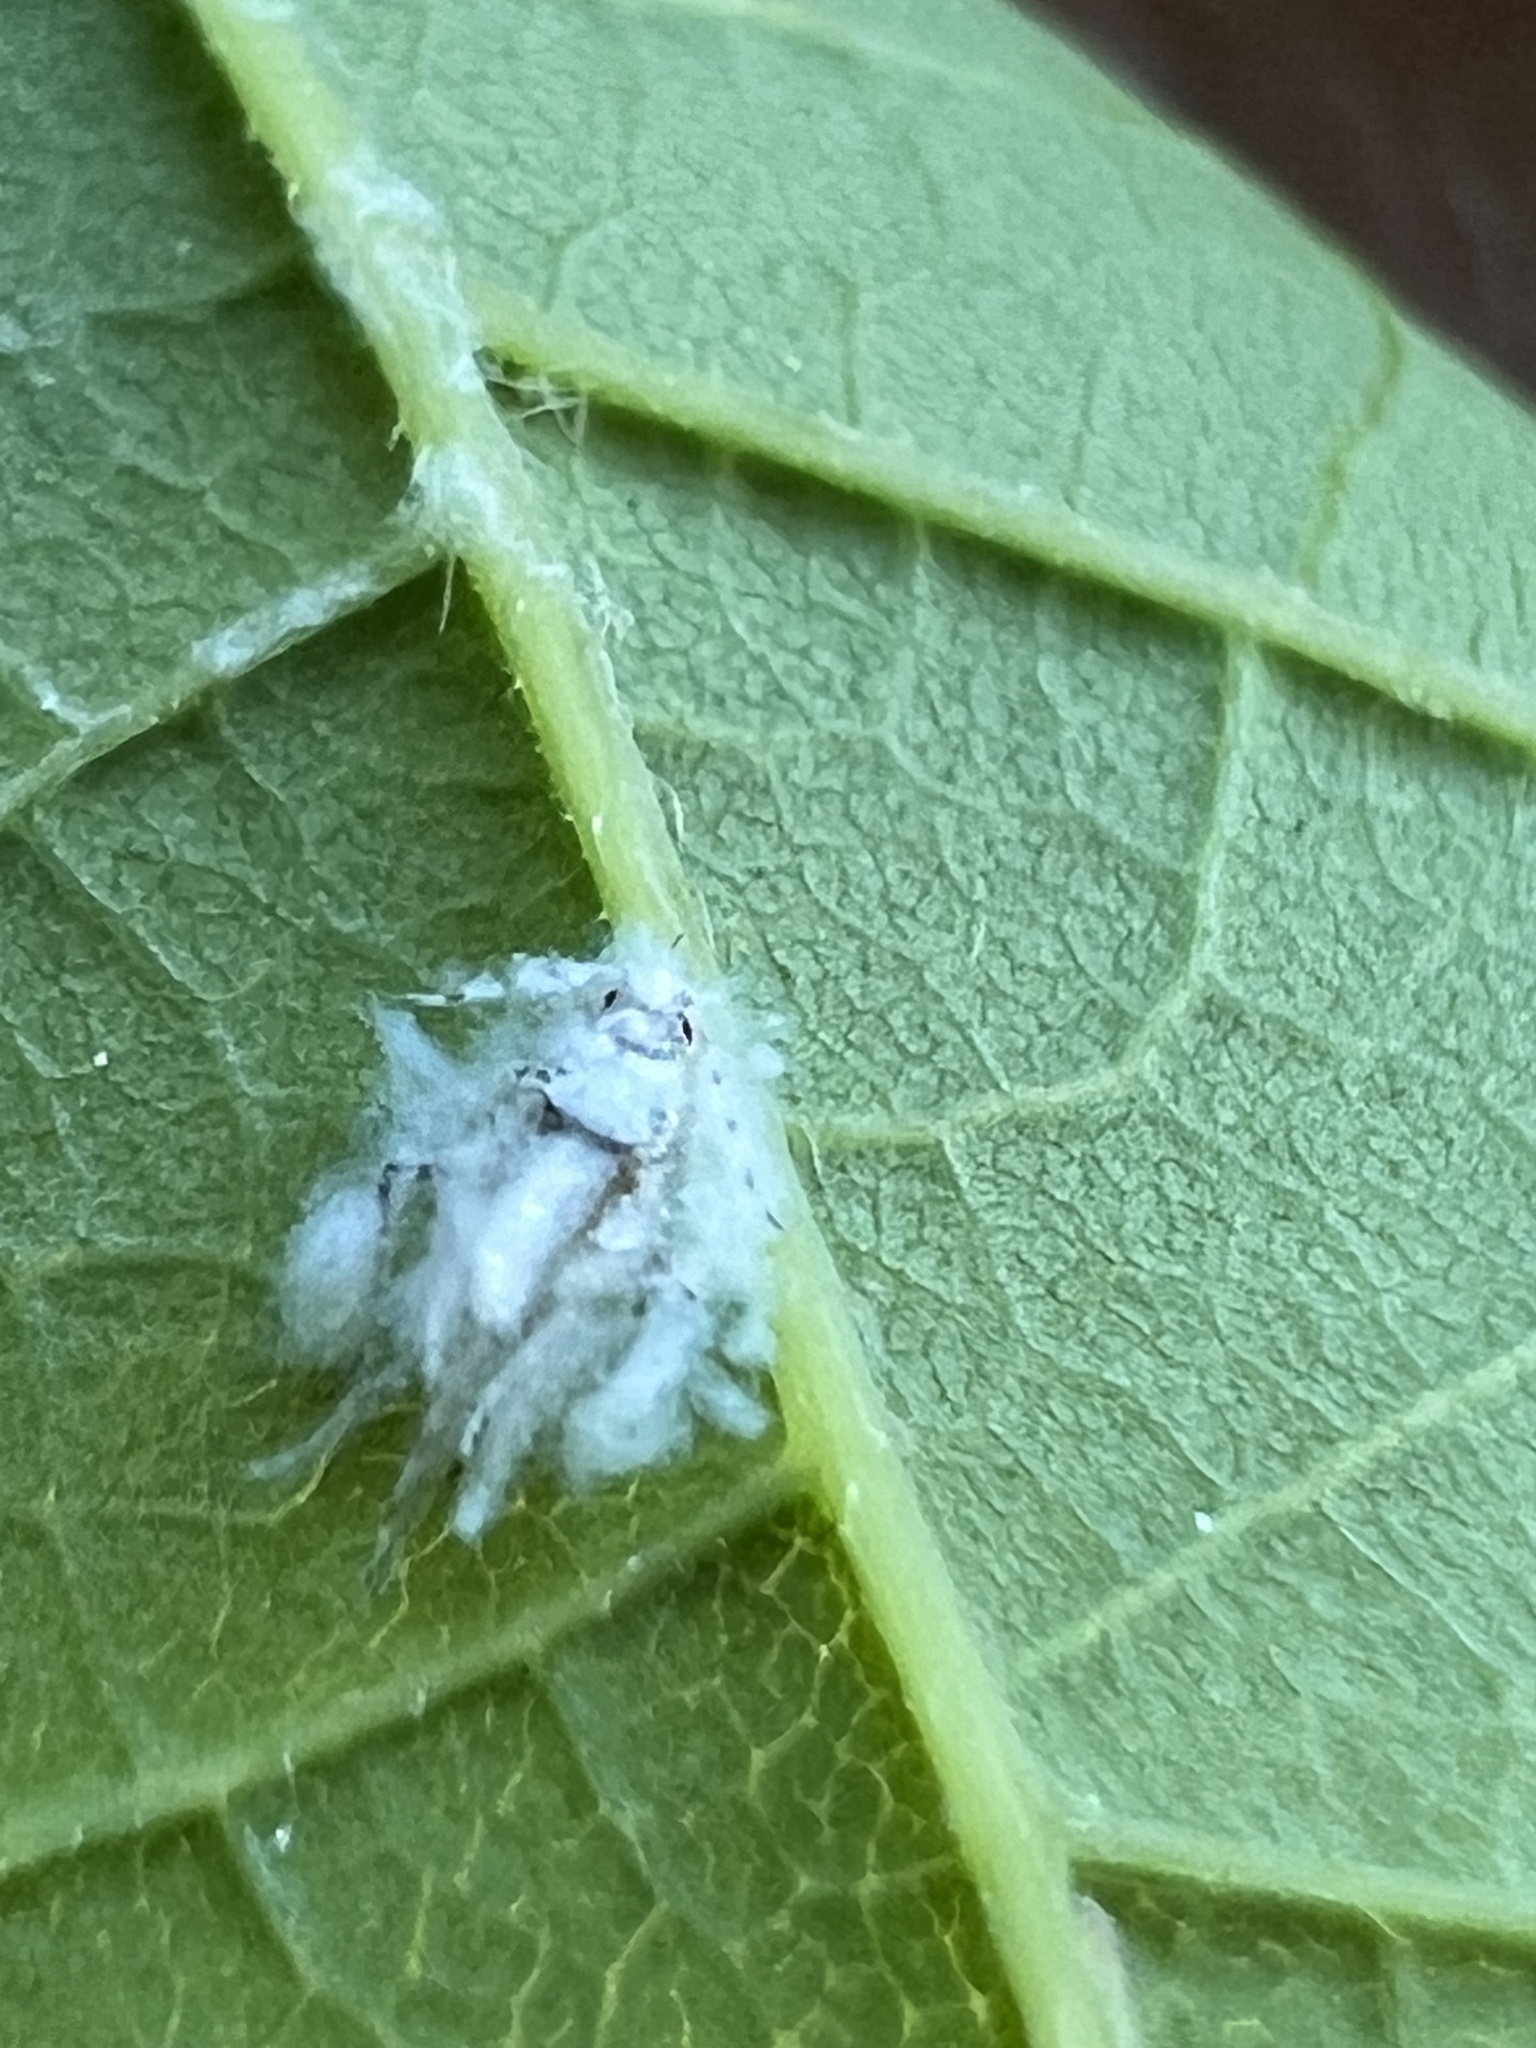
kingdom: Animalia
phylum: Arthropoda
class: Insecta
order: Hemiptera
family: Aphididae
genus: Shivaphis
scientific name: Shivaphis celti
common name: Asian wooly hackberry aphid
